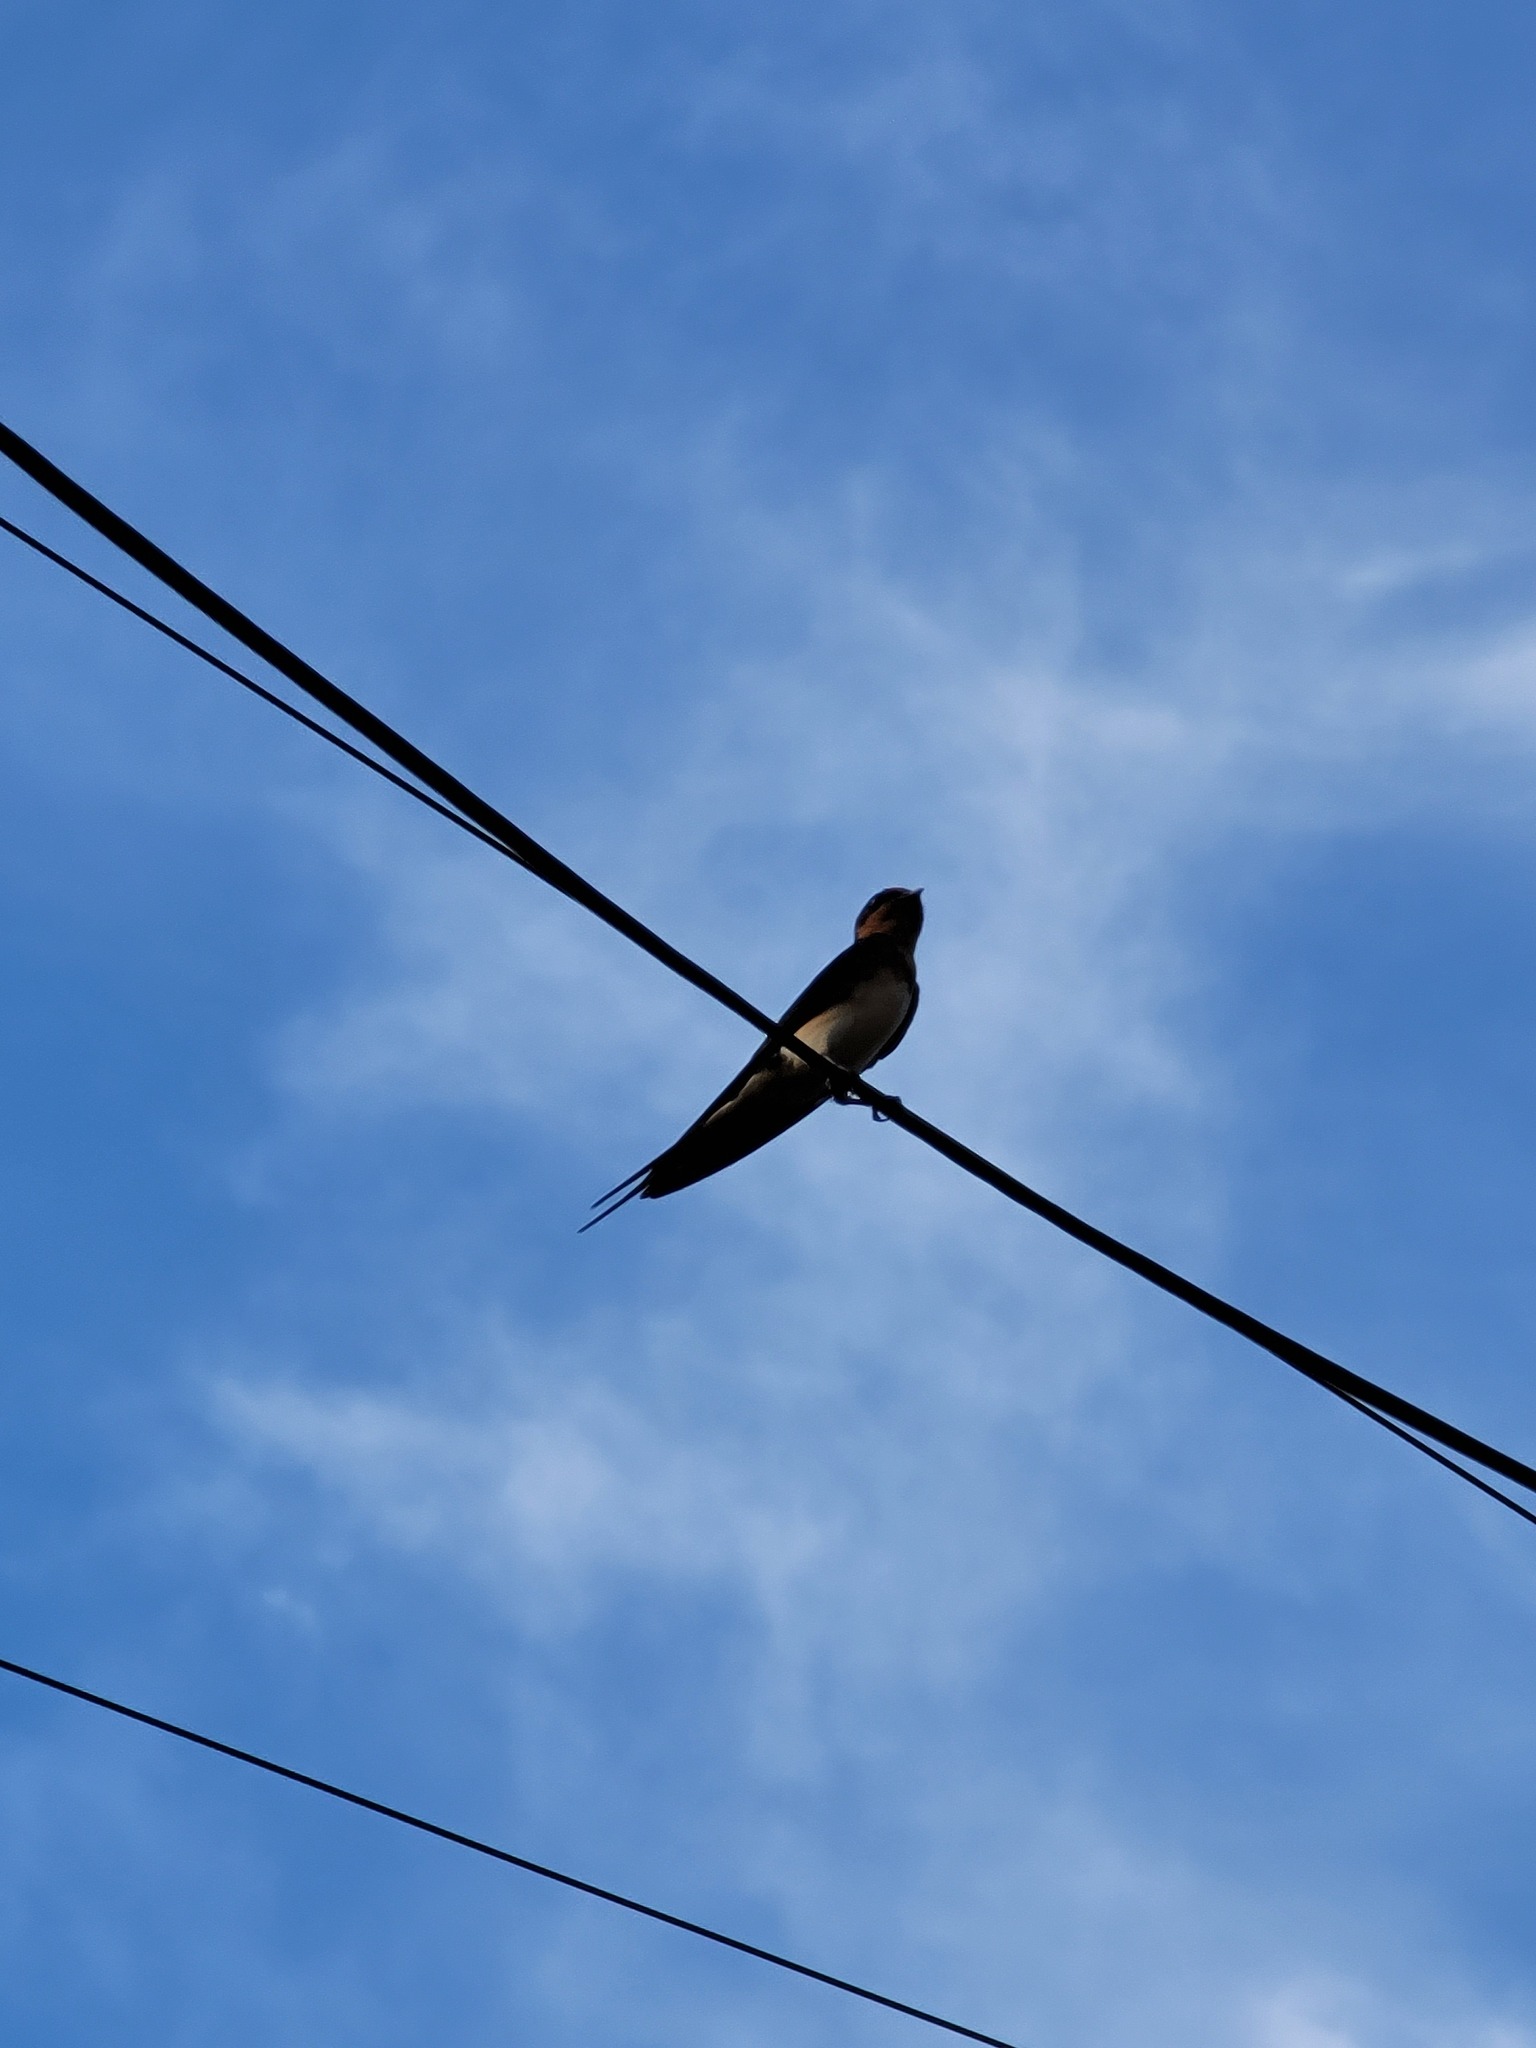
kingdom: Animalia
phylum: Chordata
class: Aves
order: Passeriformes
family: Hirundinidae
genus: Hirundo
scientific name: Hirundo rustica
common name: Barn swallow
